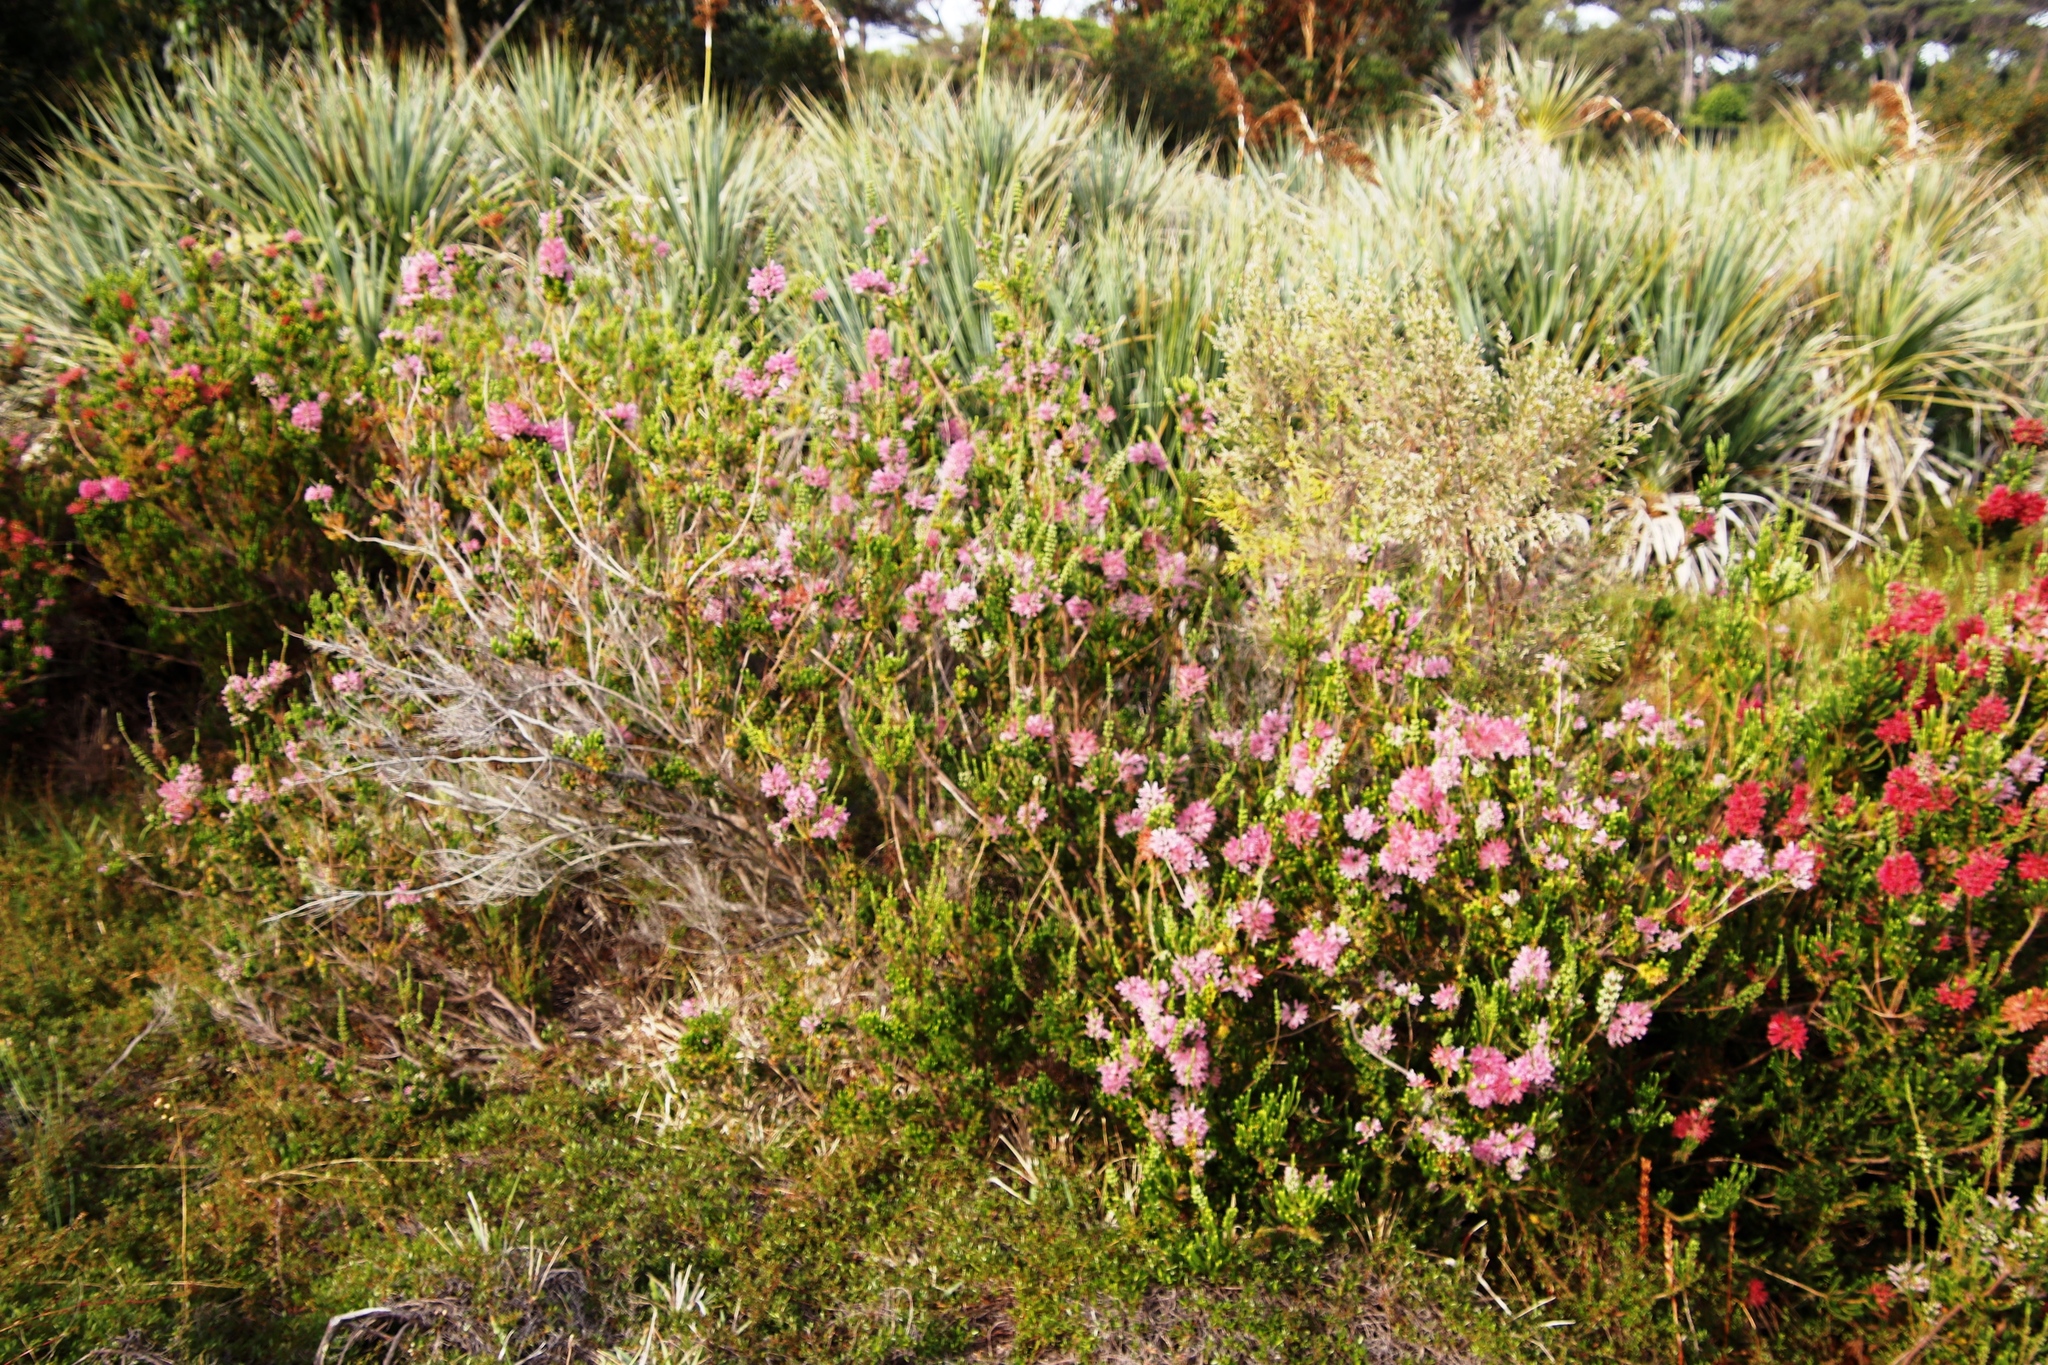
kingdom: Plantae
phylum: Tracheophyta
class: Liliopsida
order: Poales
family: Thurniaceae
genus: Prionium
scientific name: Prionium serratum
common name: Palmiet
